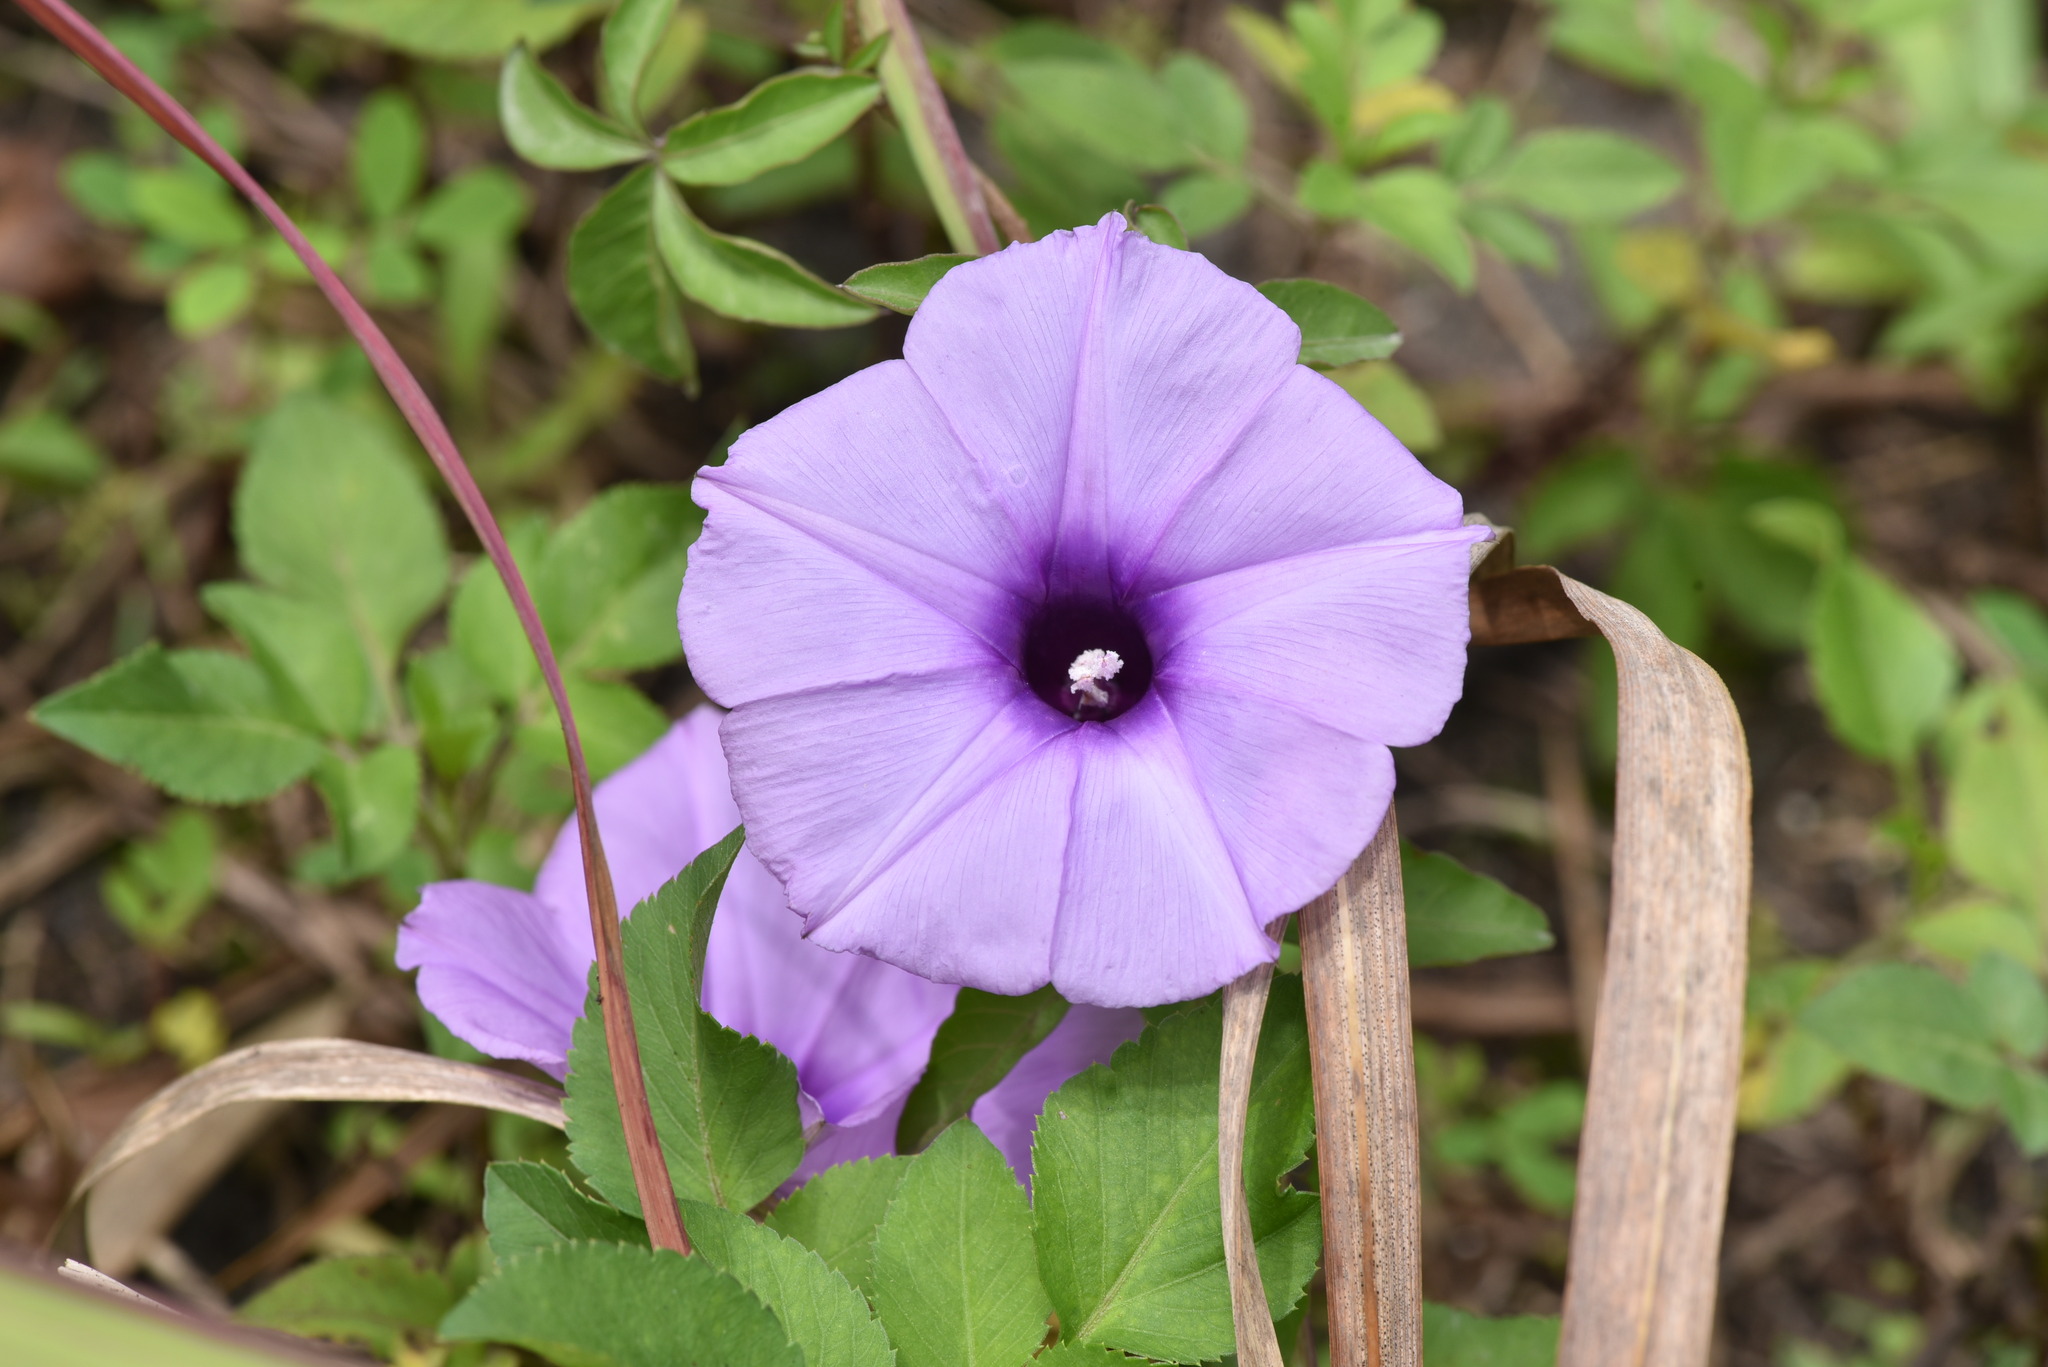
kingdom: Plantae
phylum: Tracheophyta
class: Magnoliopsida
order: Solanales
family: Convolvulaceae
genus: Ipomoea
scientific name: Ipomoea cairica
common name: Mile a minute vine
